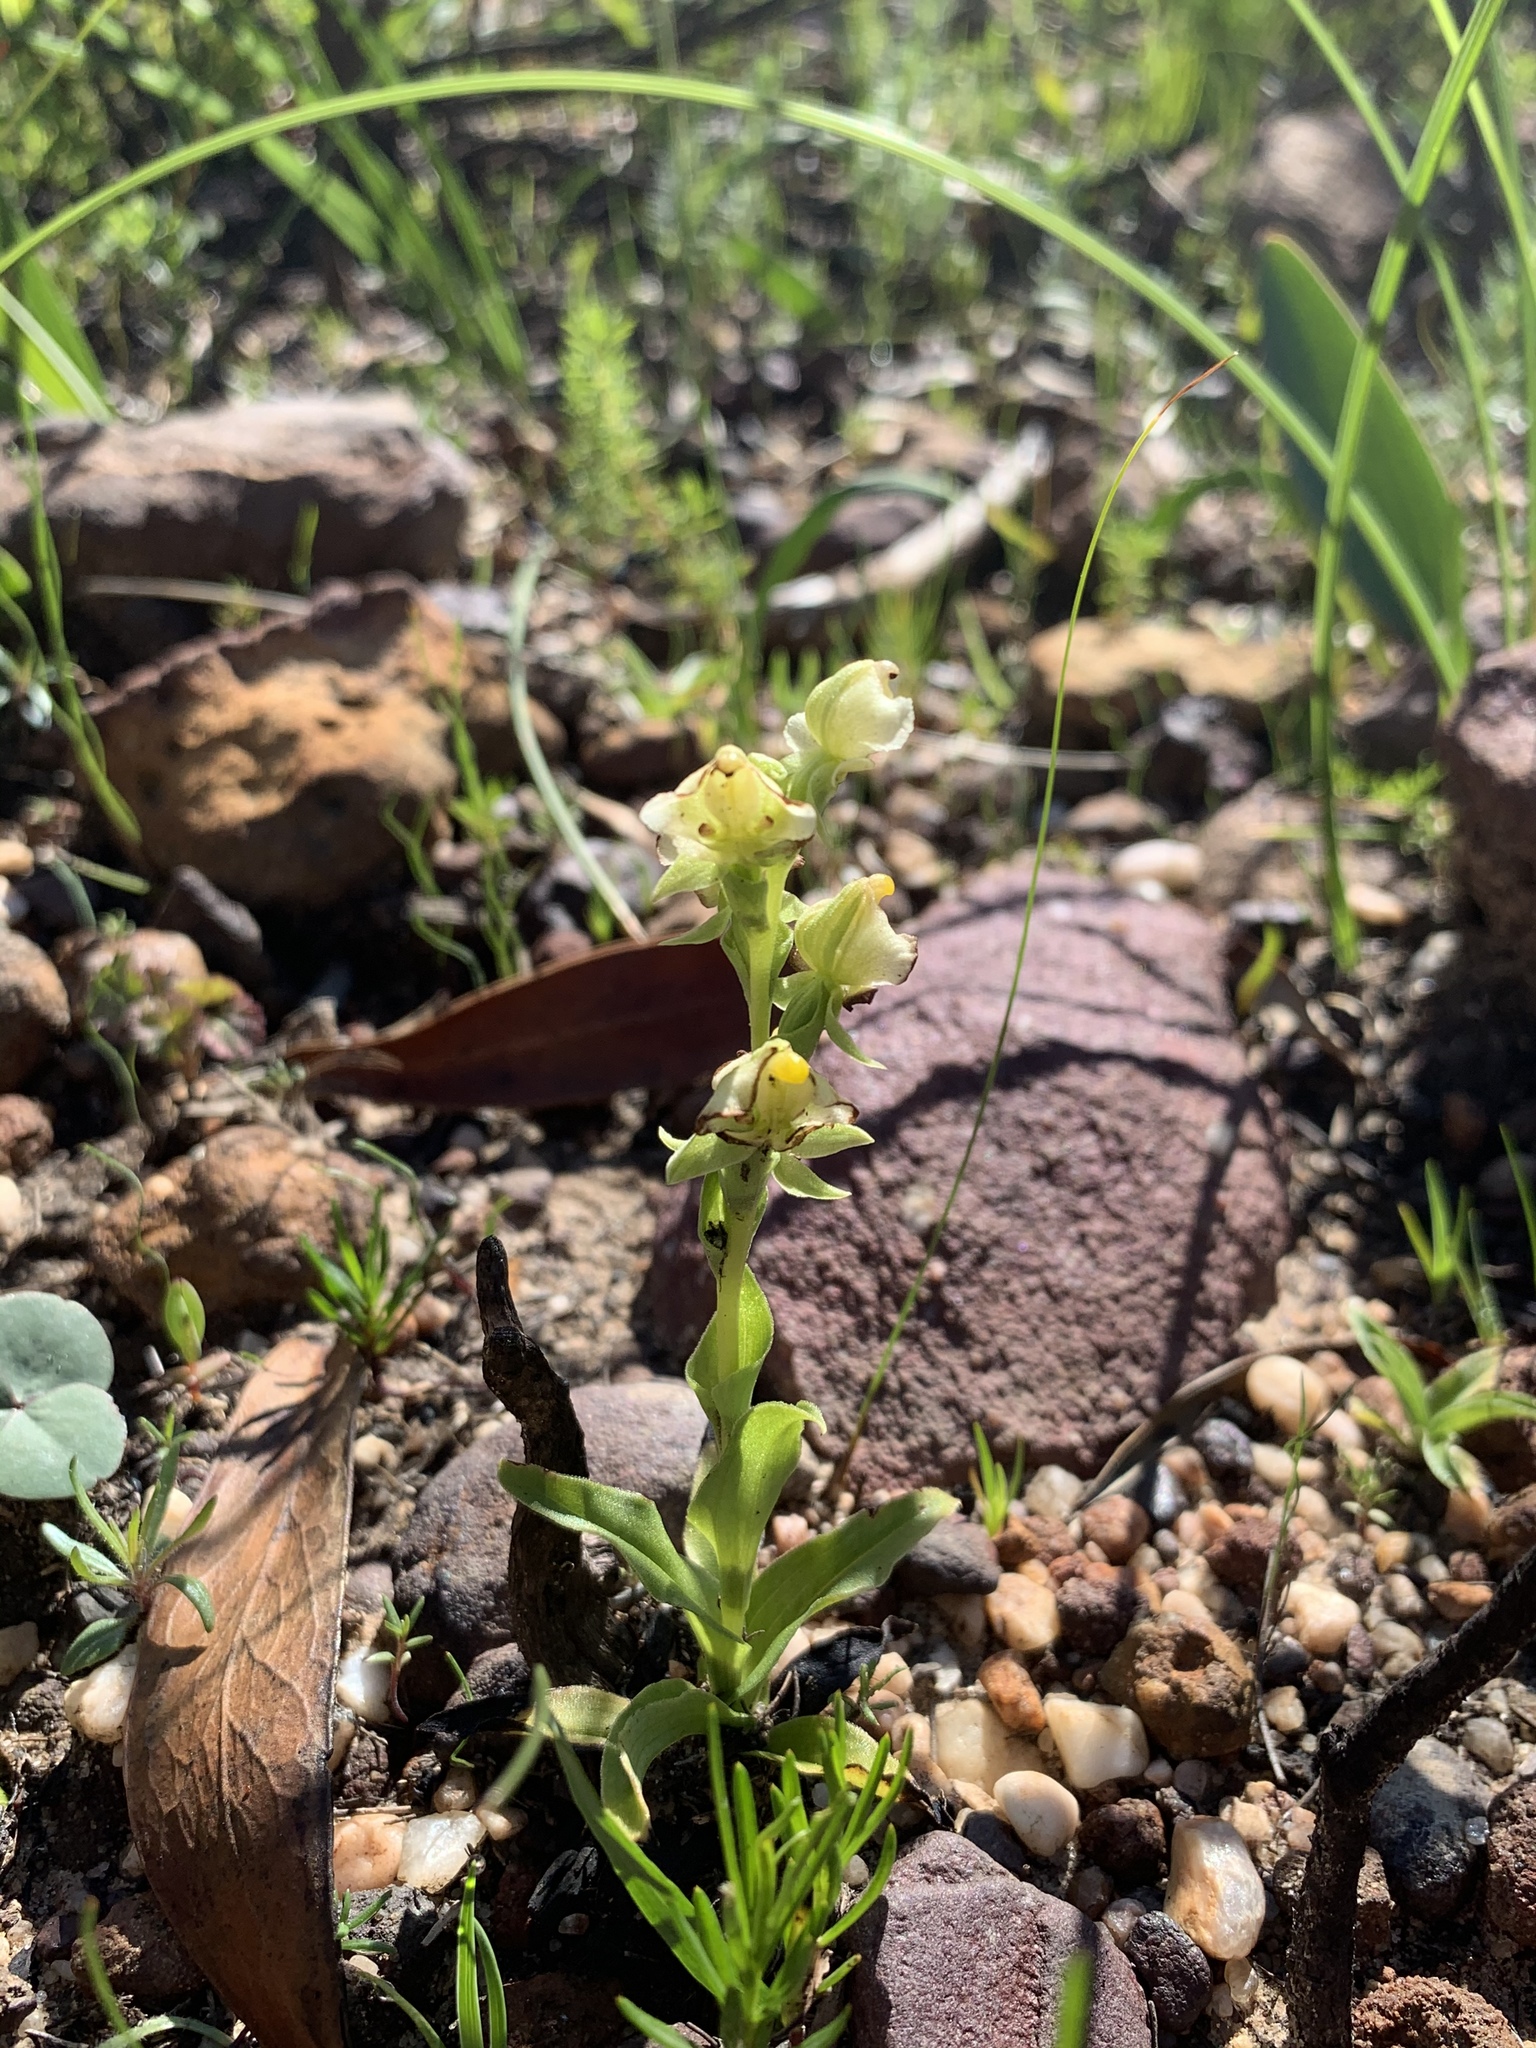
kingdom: Plantae
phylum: Tracheophyta
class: Liliopsida
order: Asparagales
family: Orchidaceae
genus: Pterygodium
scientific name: Pterygodium alatum
